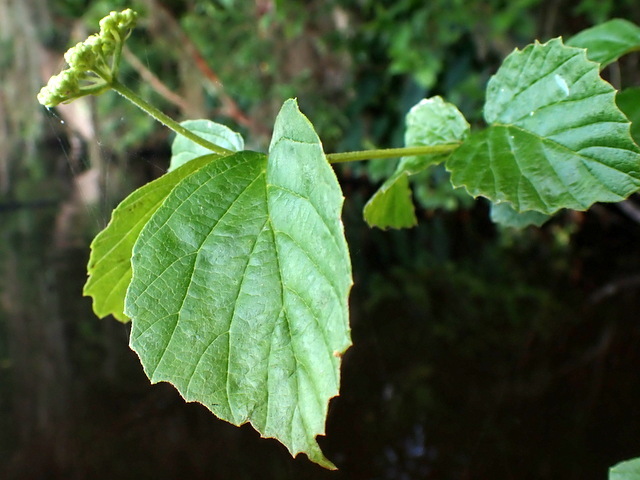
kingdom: Plantae
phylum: Tracheophyta
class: Magnoliopsida
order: Dipsacales
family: Viburnaceae
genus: Viburnum
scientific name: Viburnum scabrellum
